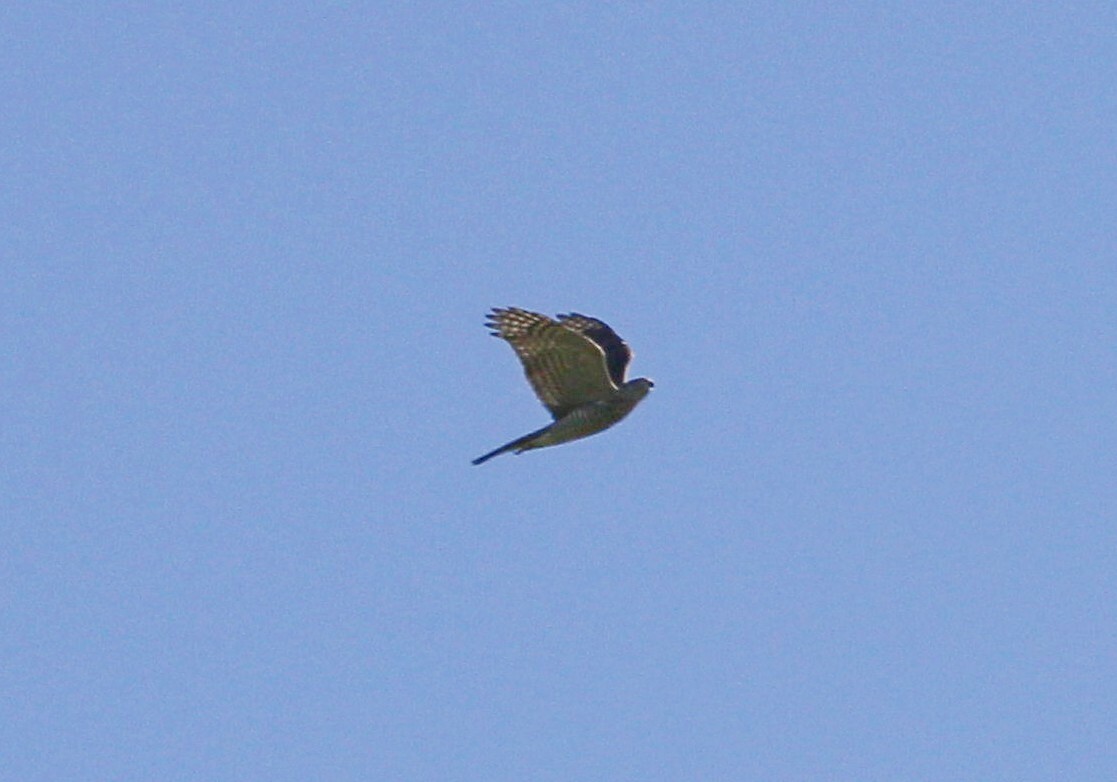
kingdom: Animalia
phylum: Chordata
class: Aves
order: Accipitriformes
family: Accipitridae
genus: Accipiter
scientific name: Accipiter nisus
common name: Eurasian sparrowhawk
